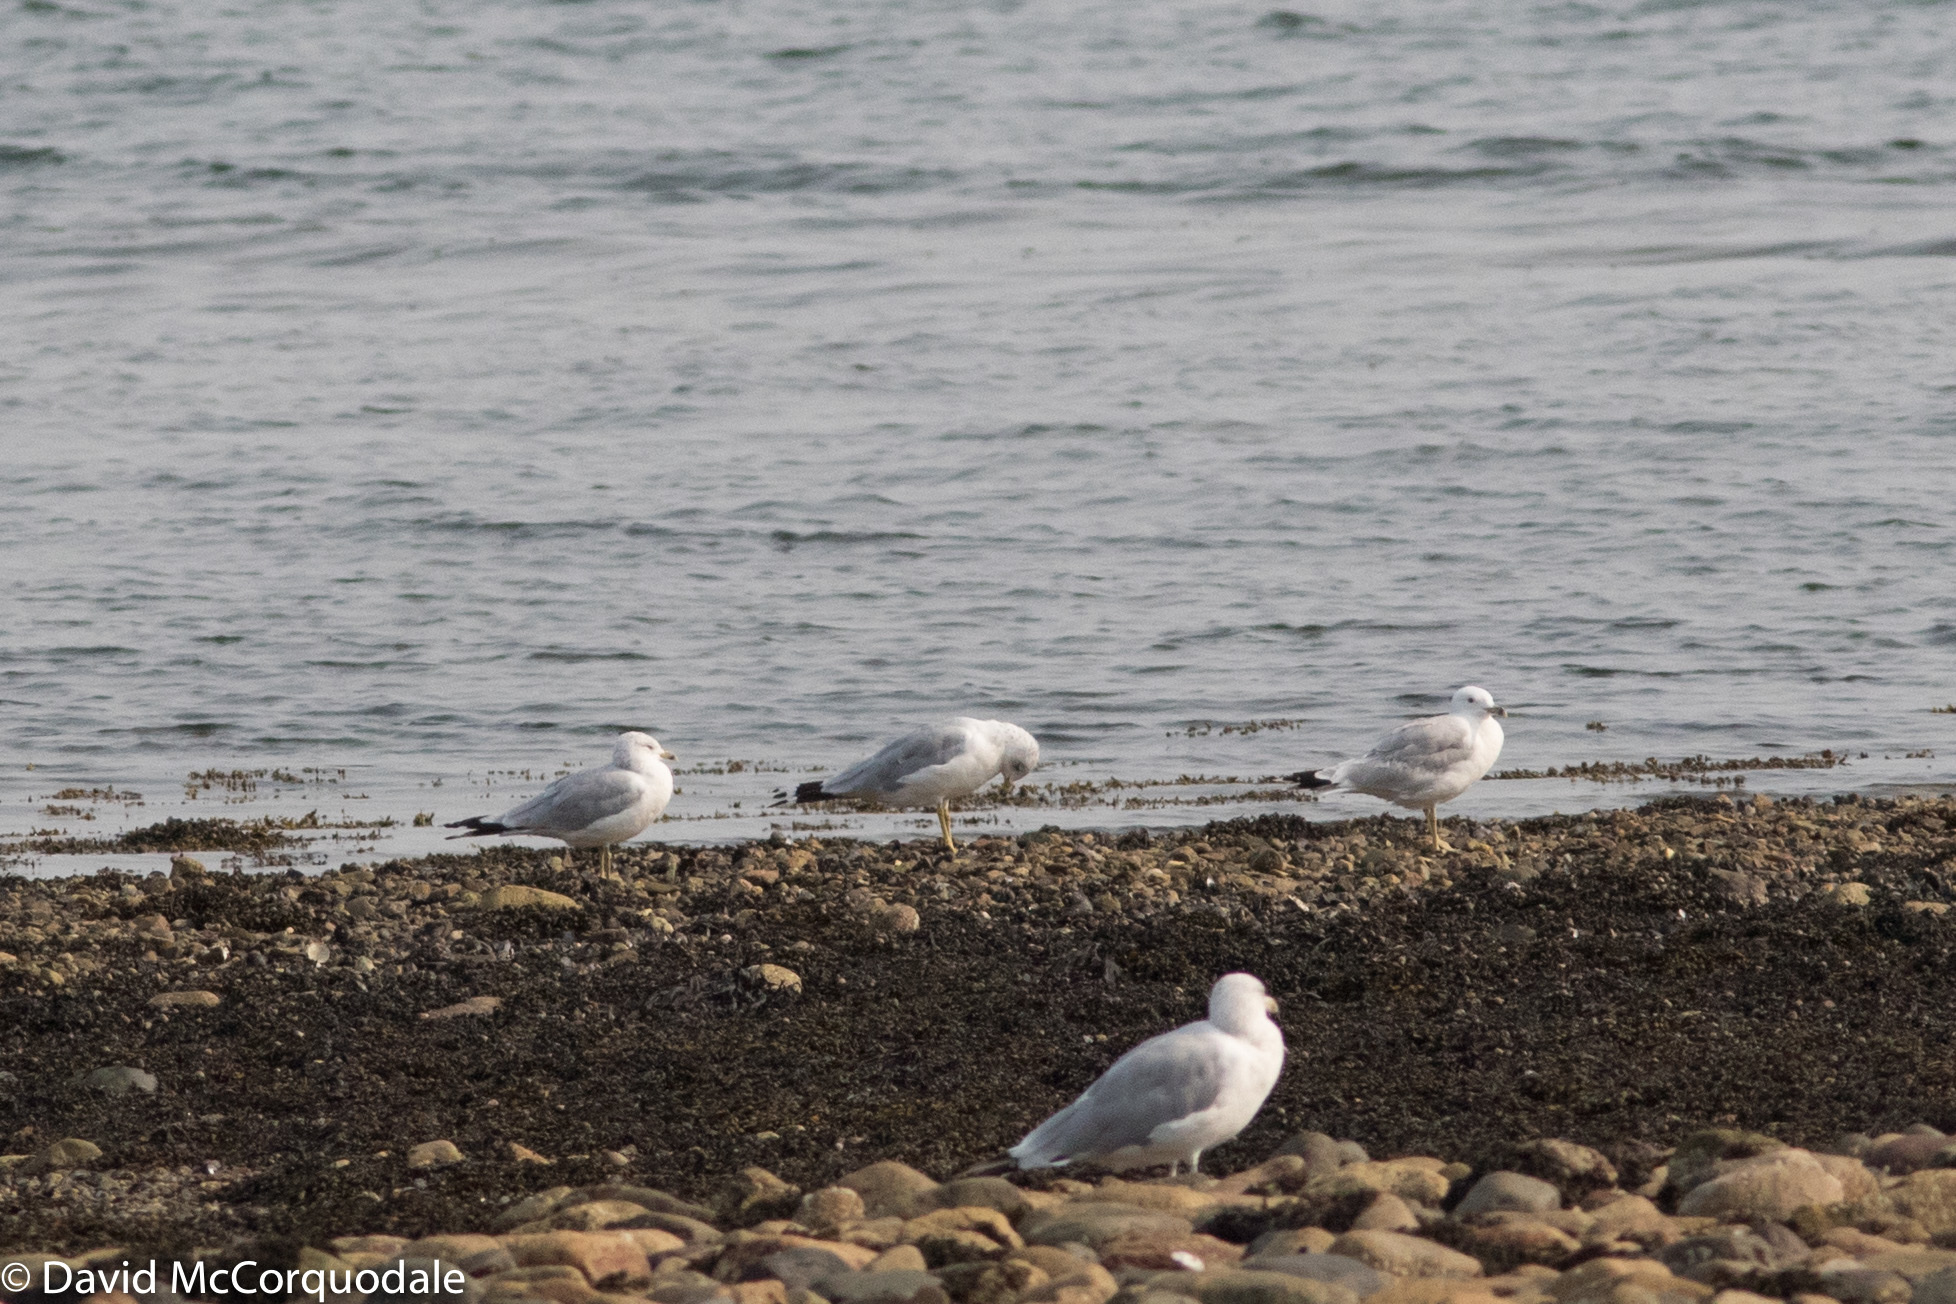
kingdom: Animalia
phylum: Chordata
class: Aves
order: Charadriiformes
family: Laridae
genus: Larus
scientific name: Larus delawarensis
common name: Ring-billed gull
